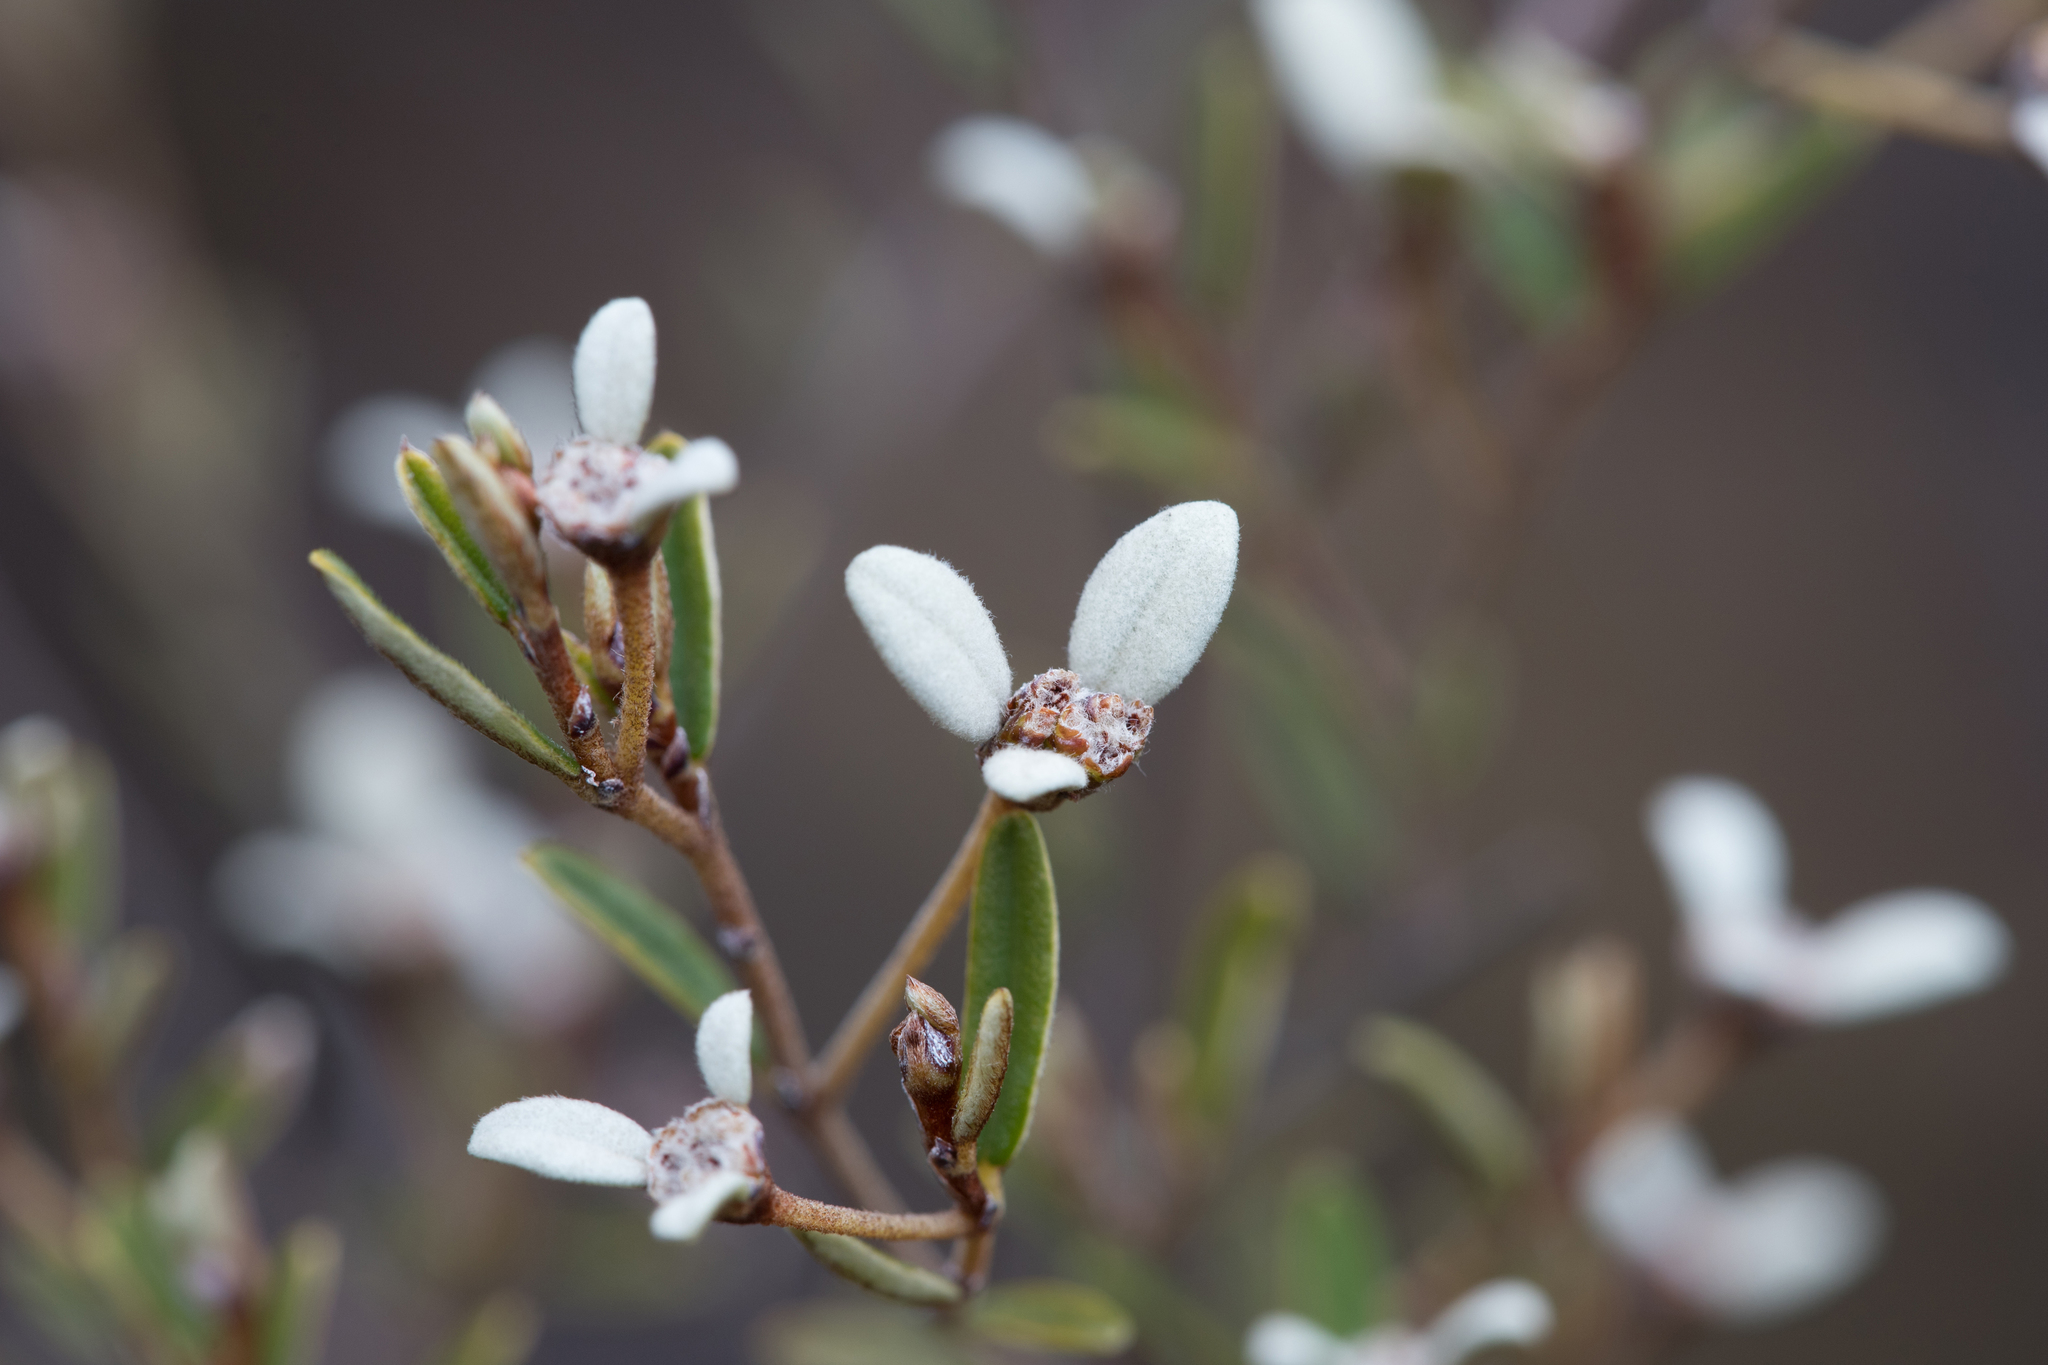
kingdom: Plantae
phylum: Tracheophyta
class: Magnoliopsida
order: Rosales
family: Rhamnaceae
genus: Spyridium
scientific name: Spyridium vexilliferum
